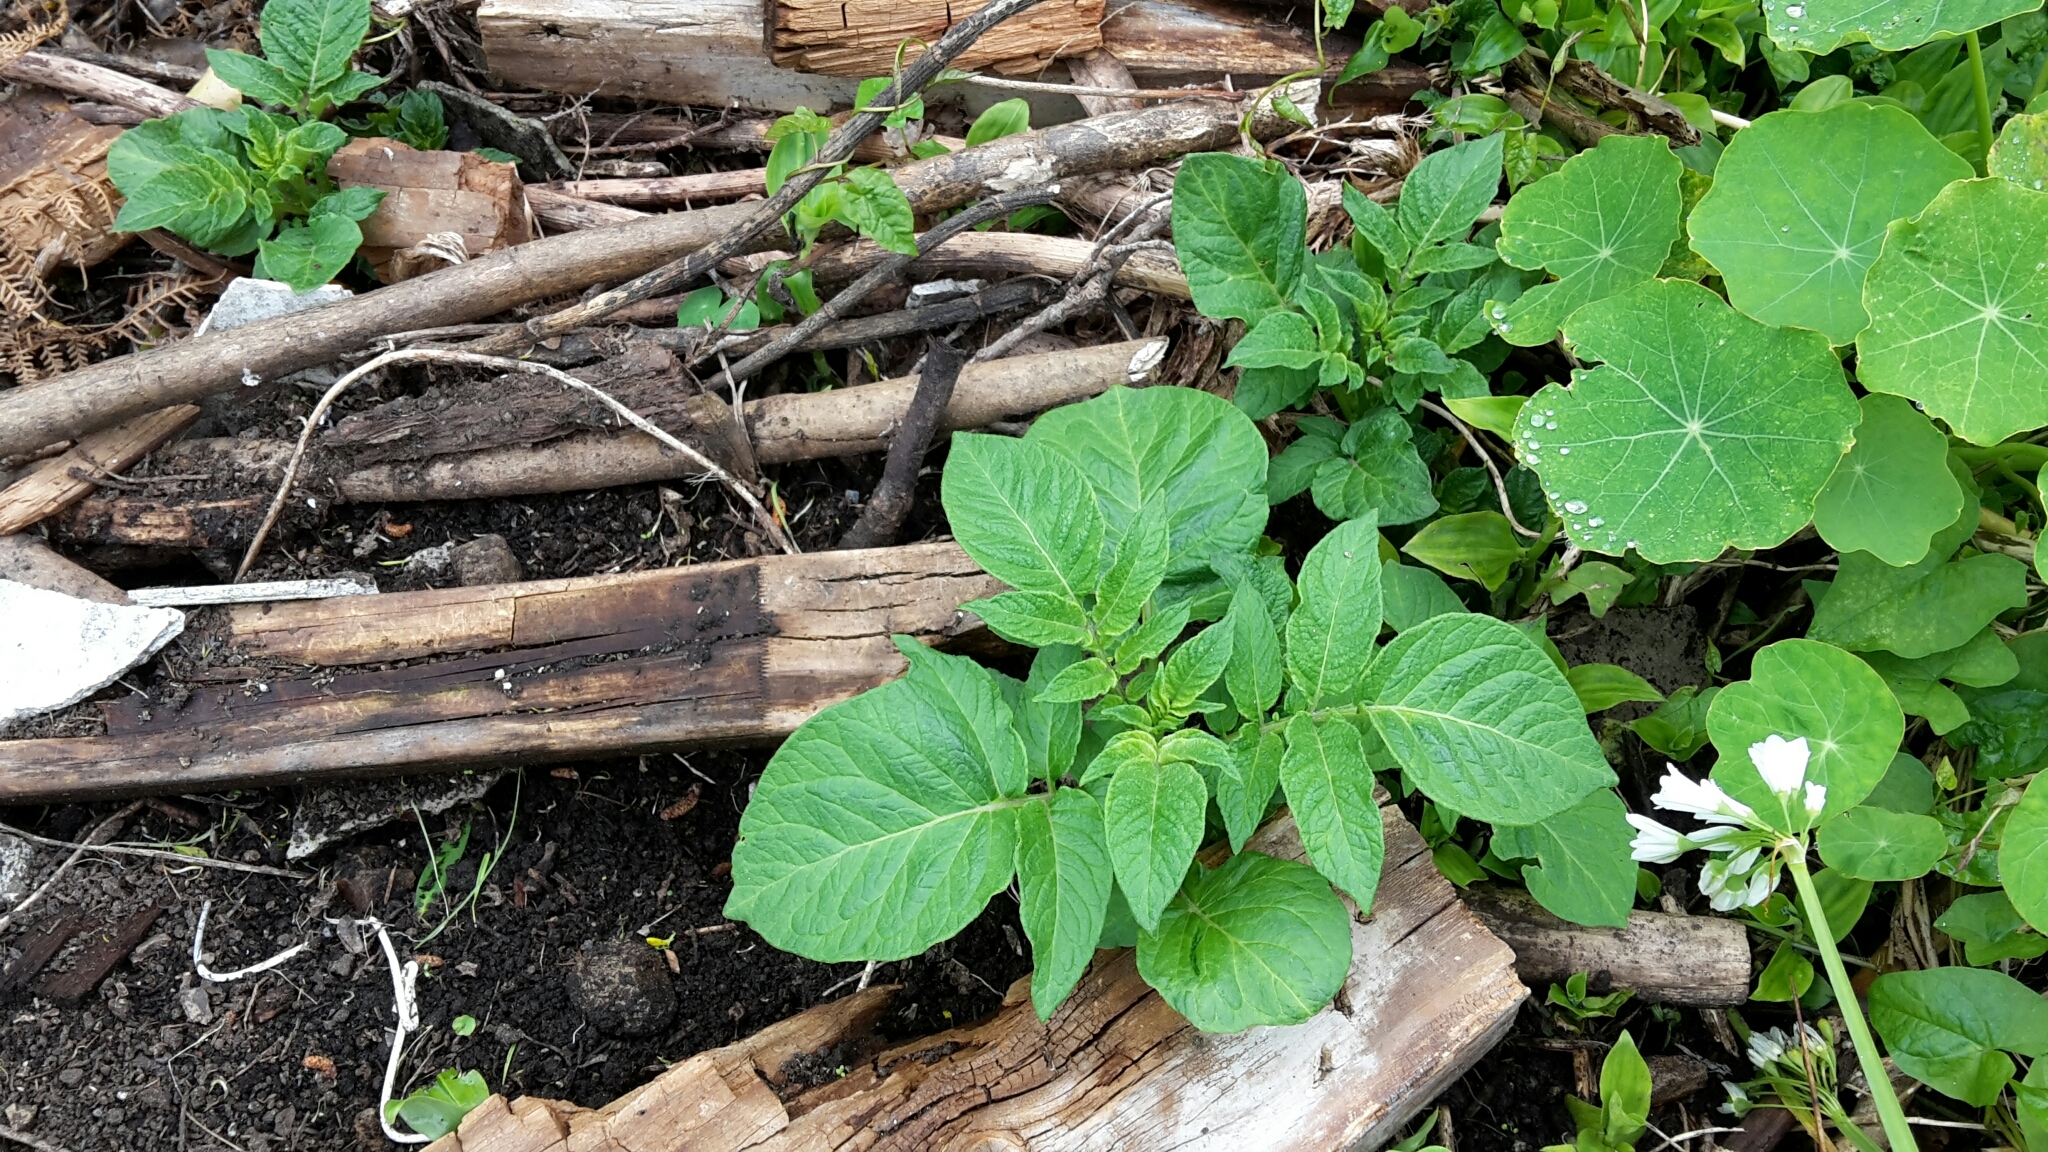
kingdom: Plantae
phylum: Tracheophyta
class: Magnoliopsida
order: Solanales
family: Solanaceae
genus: Solanum
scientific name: Solanum tuberosum
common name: Potato
